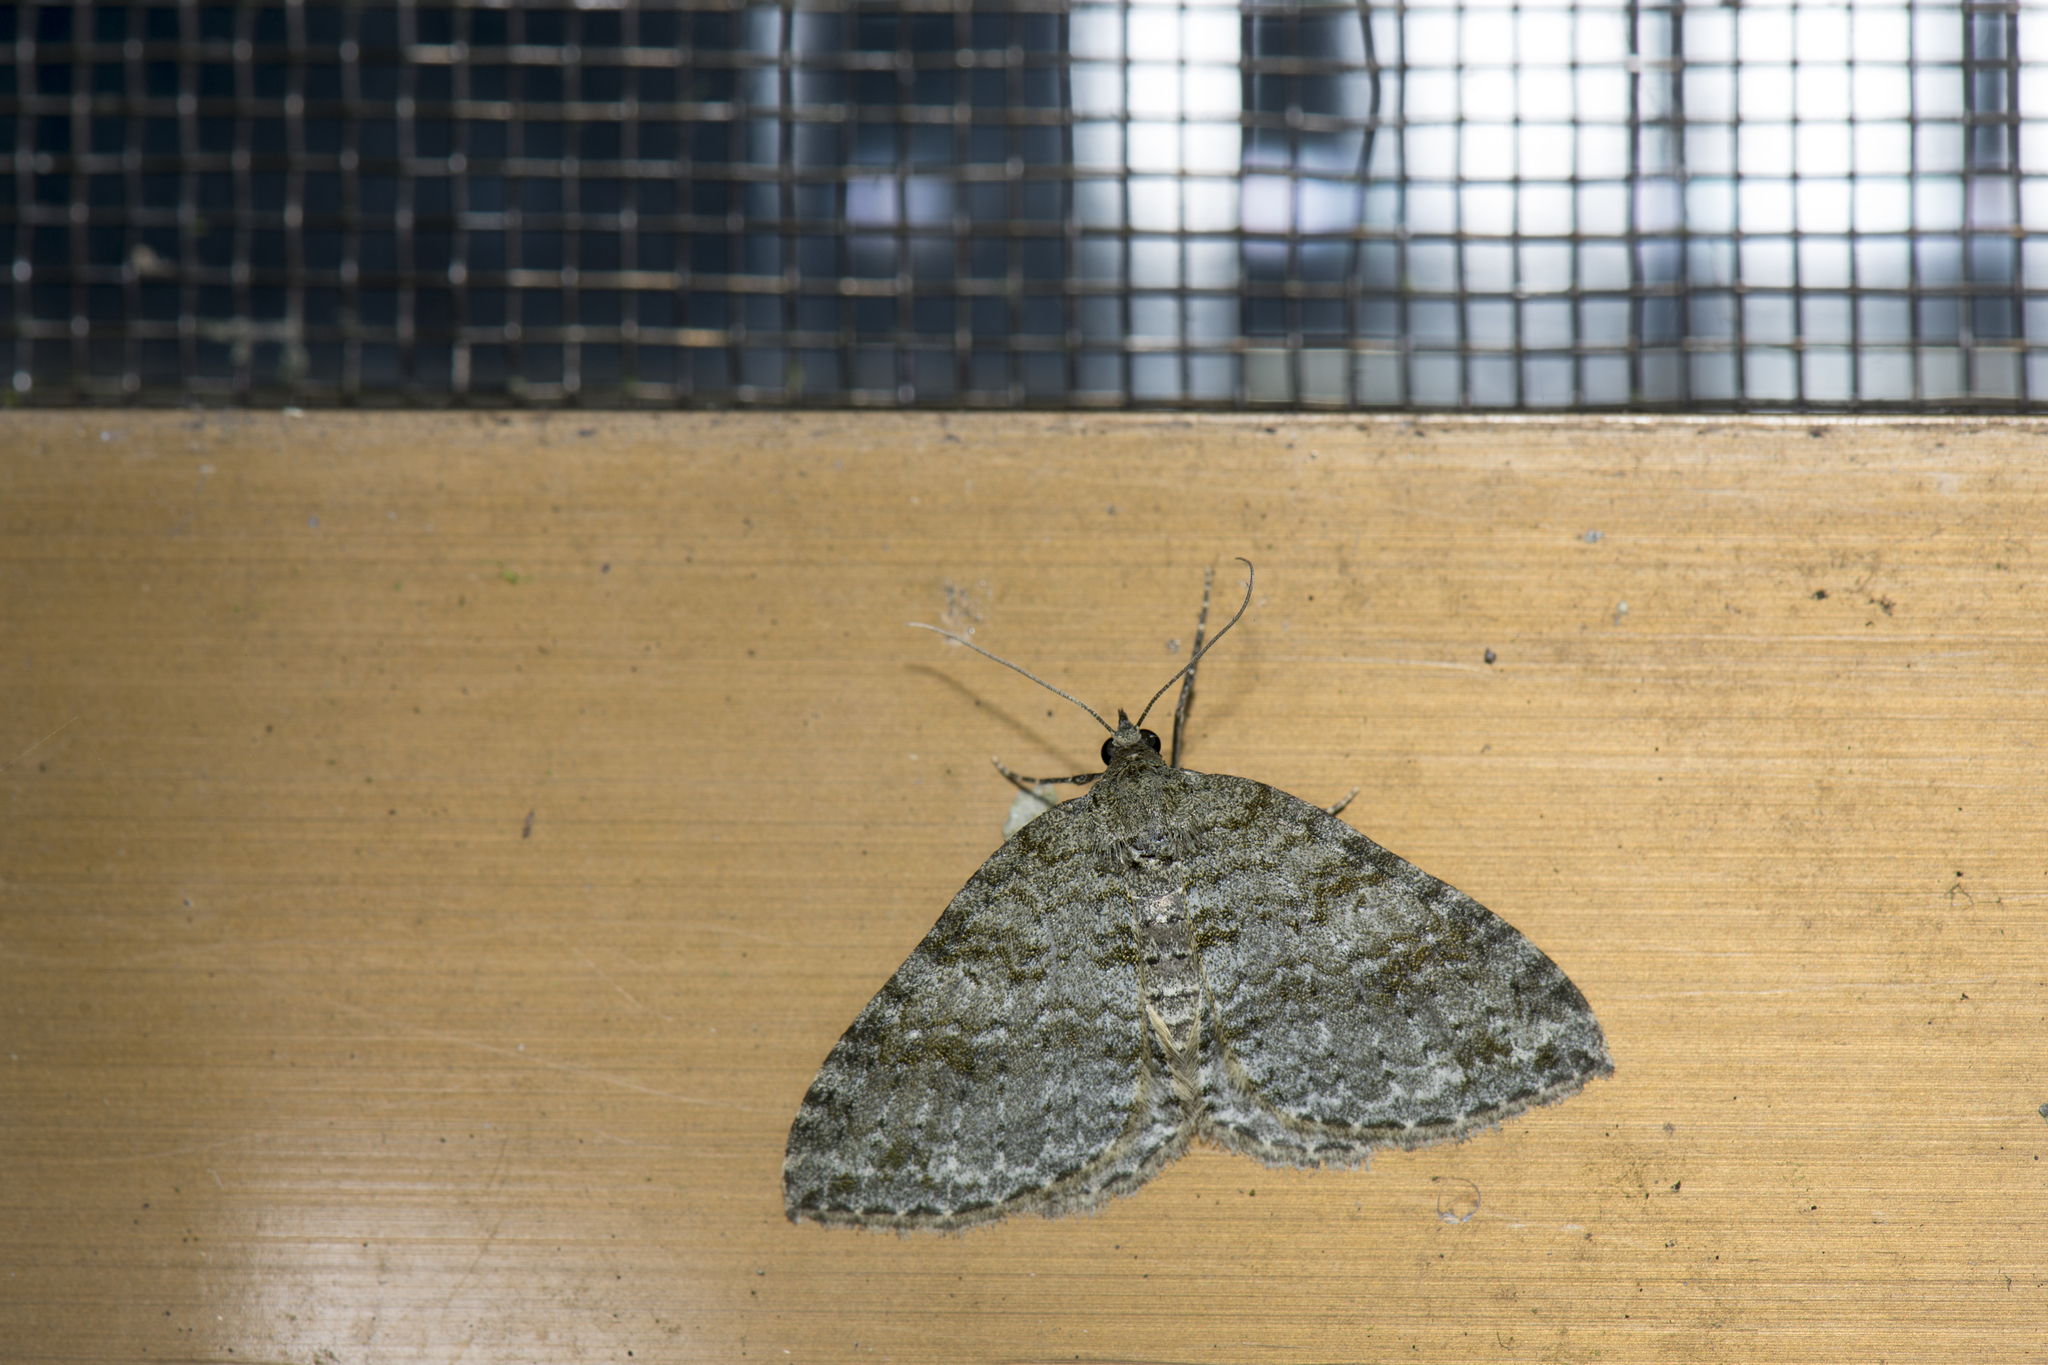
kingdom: Animalia
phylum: Arthropoda
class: Insecta
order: Lepidoptera
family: Geometridae
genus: Atopophysa
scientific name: Atopophysa opulens
